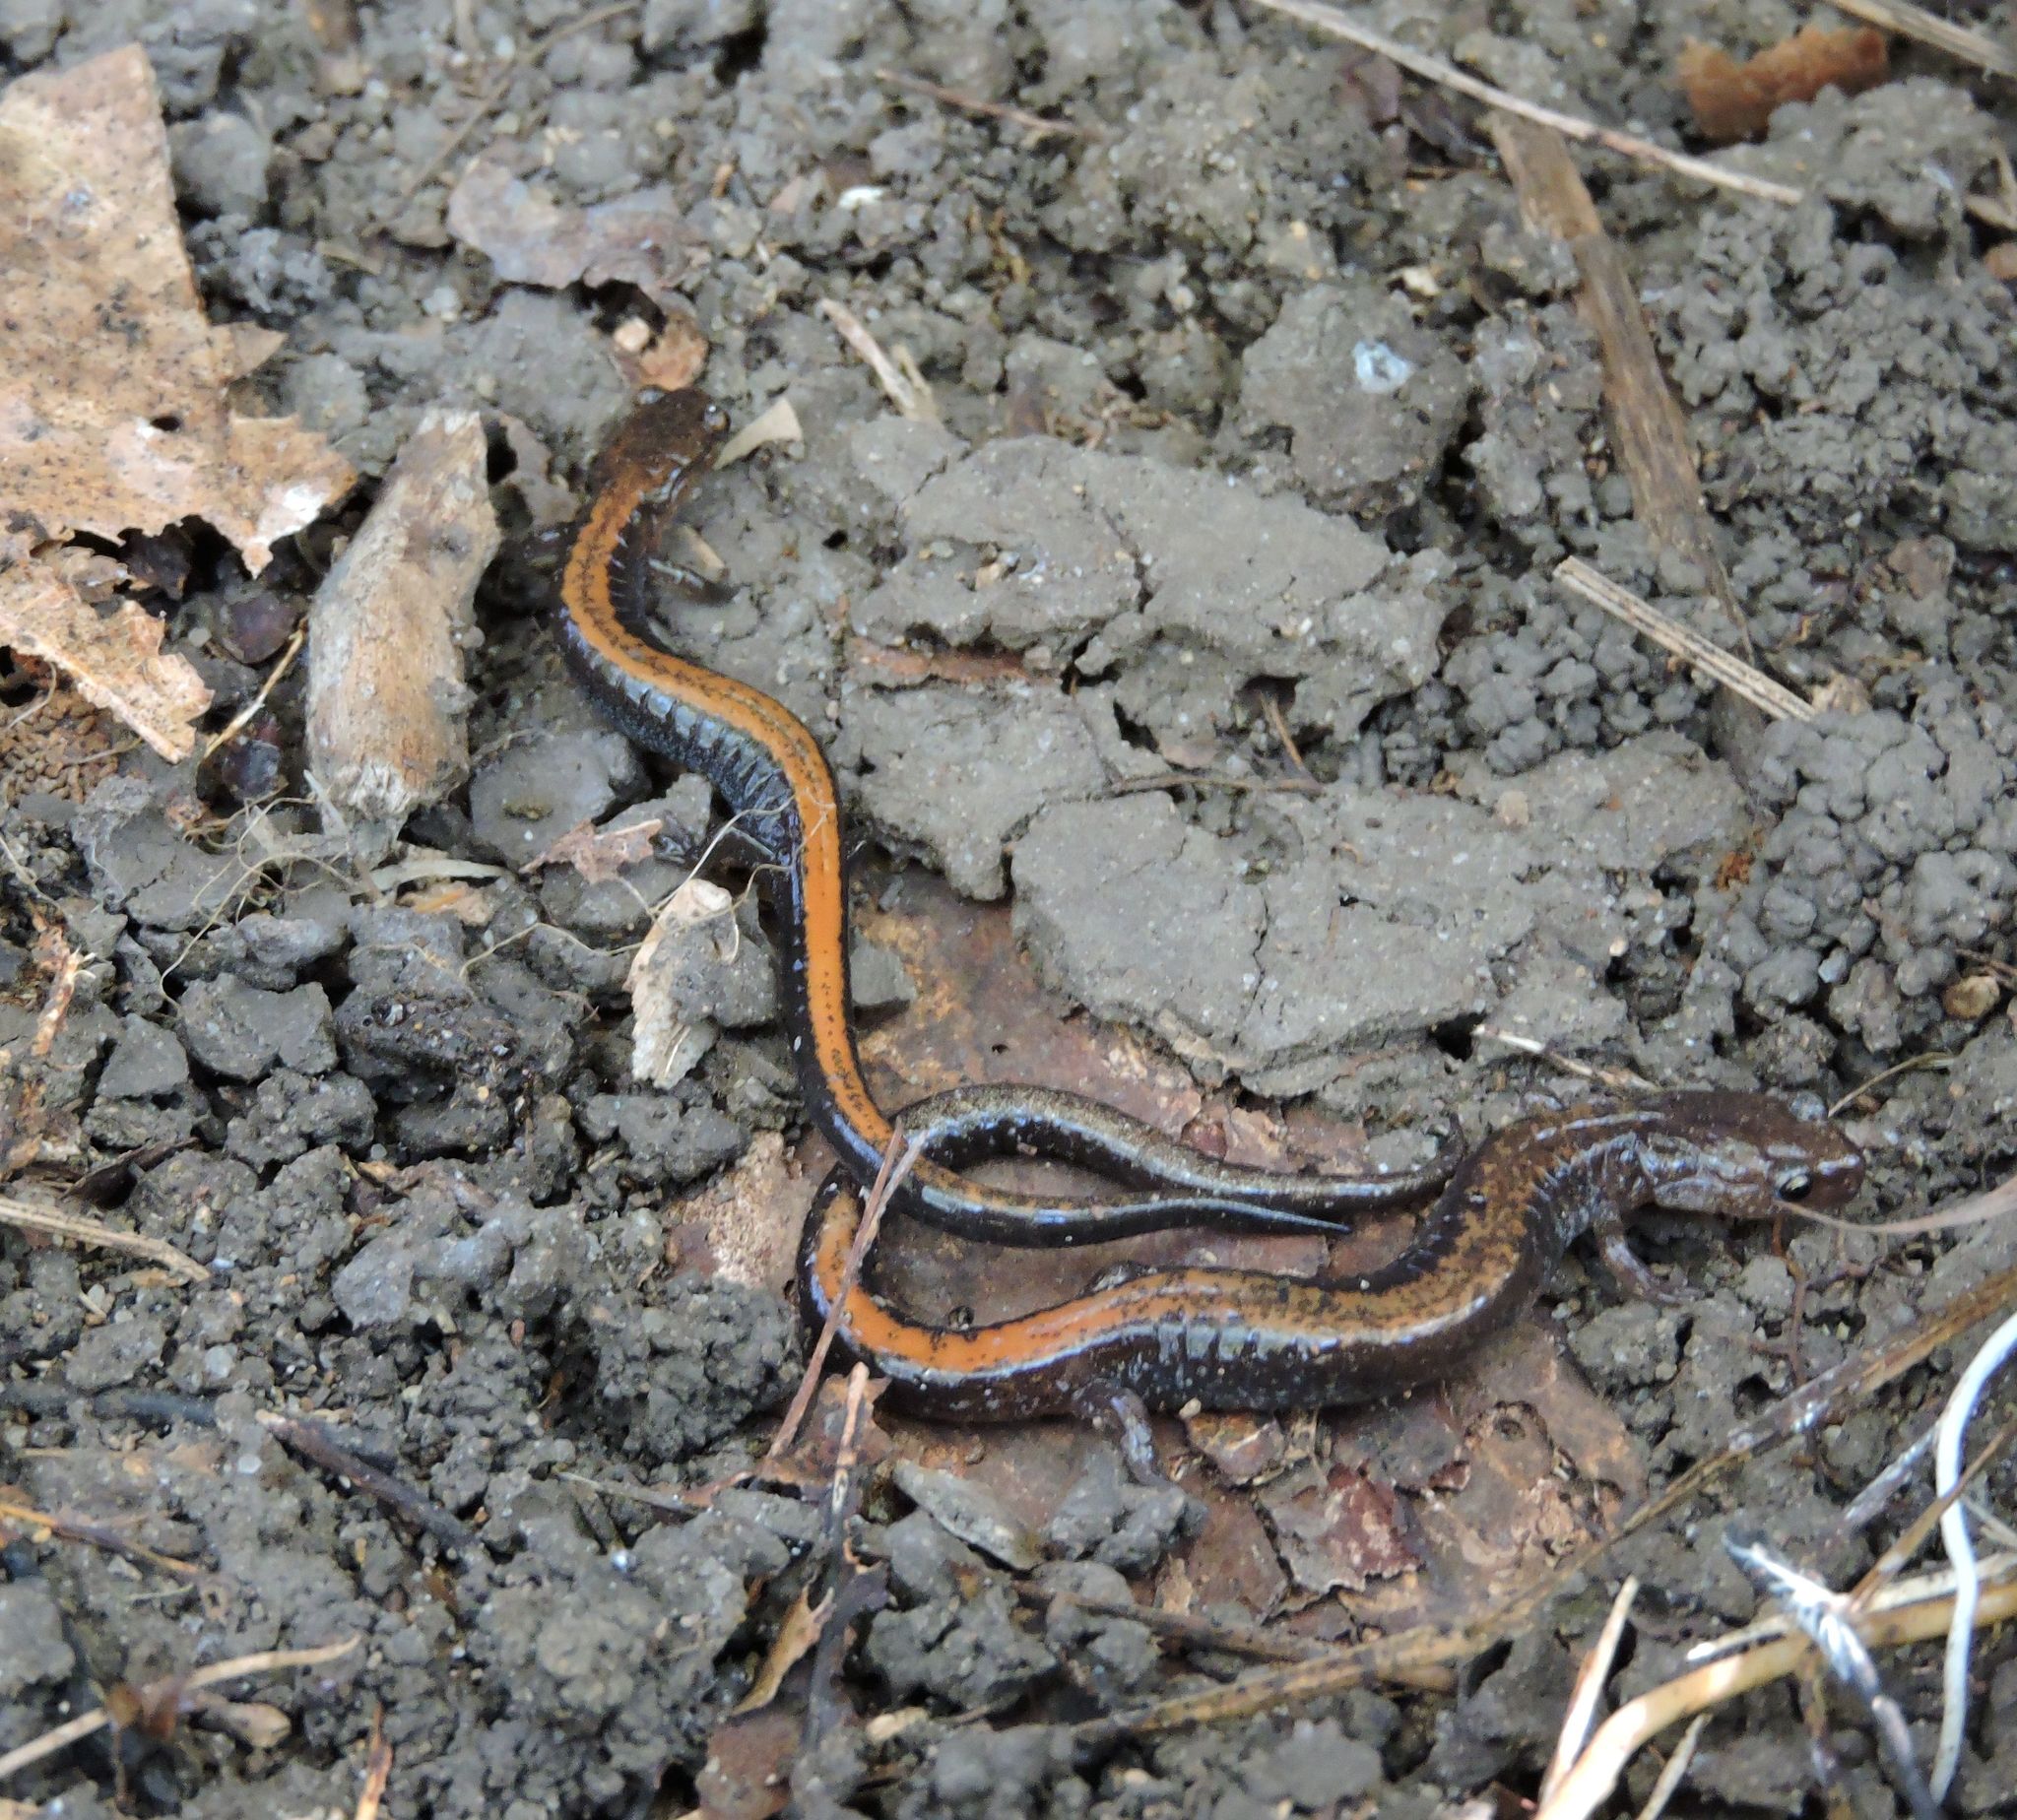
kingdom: Animalia
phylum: Chordata
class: Amphibia
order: Caudata
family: Plethodontidae
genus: Plethodon
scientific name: Plethodon cinereus
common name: Redback salamander
